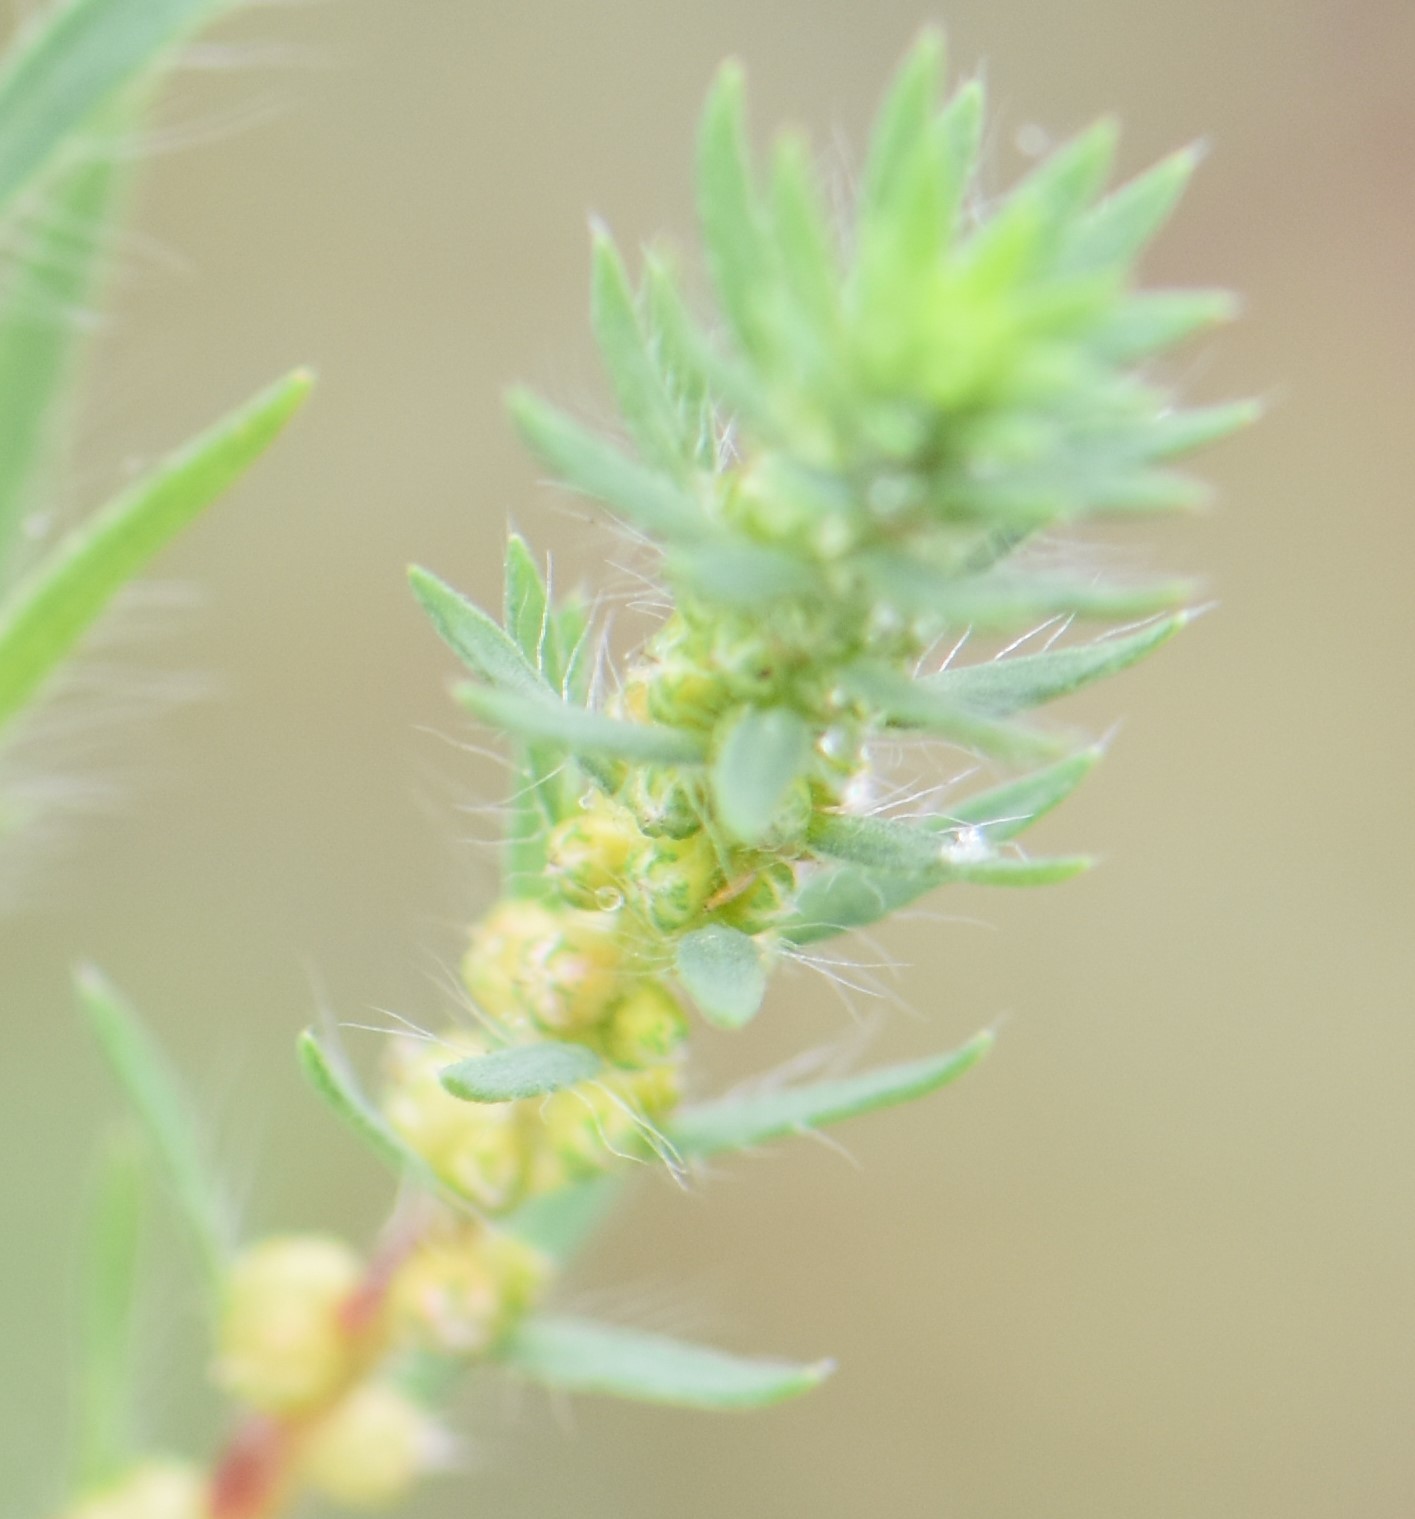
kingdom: Plantae
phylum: Tracheophyta
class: Magnoliopsida
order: Caryophyllales
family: Amaranthaceae
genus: Bassia
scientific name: Bassia scoparia
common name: Belvedere
